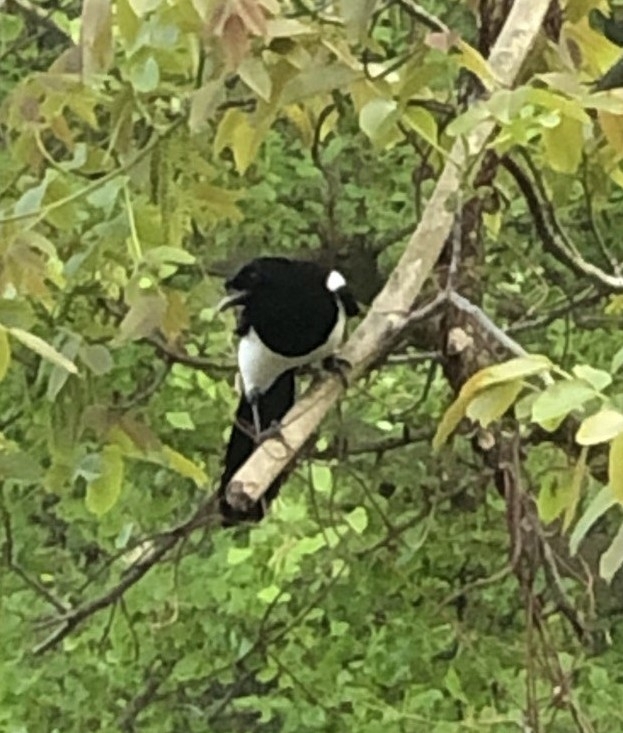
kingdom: Animalia
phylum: Chordata
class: Aves
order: Passeriformes
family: Corvidae
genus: Pica
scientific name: Pica pica
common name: Eurasian magpie
